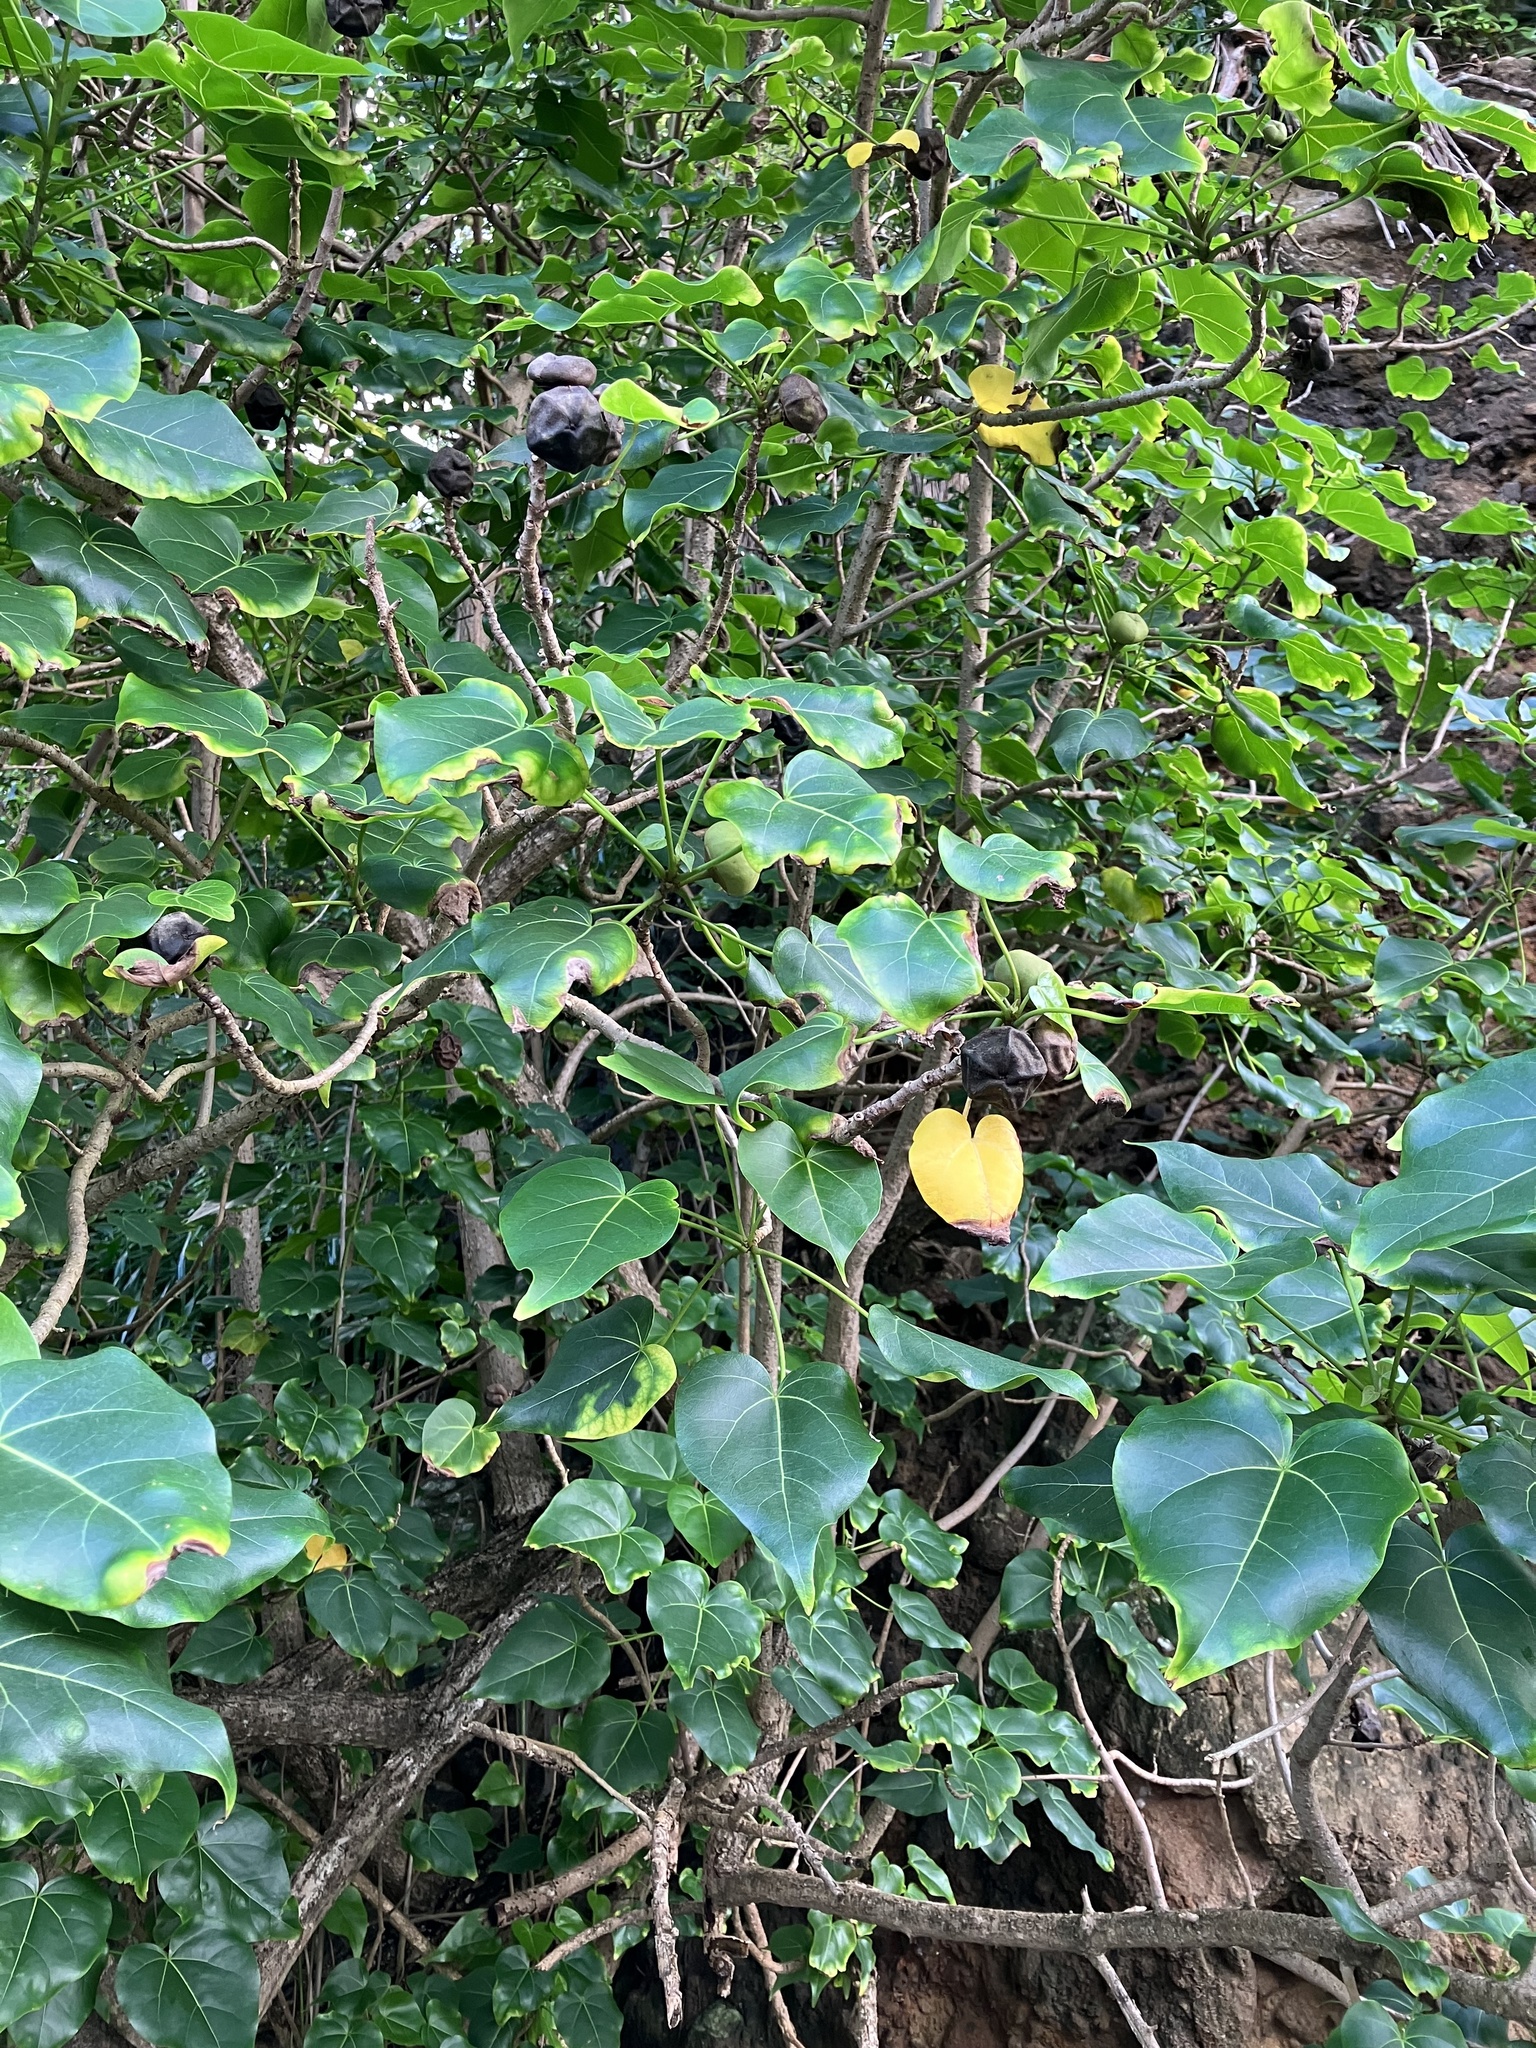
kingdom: Plantae
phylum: Tracheophyta
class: Magnoliopsida
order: Malvales
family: Malvaceae
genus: Thespesia
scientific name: Thespesia populnea
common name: Seaside mahoe
